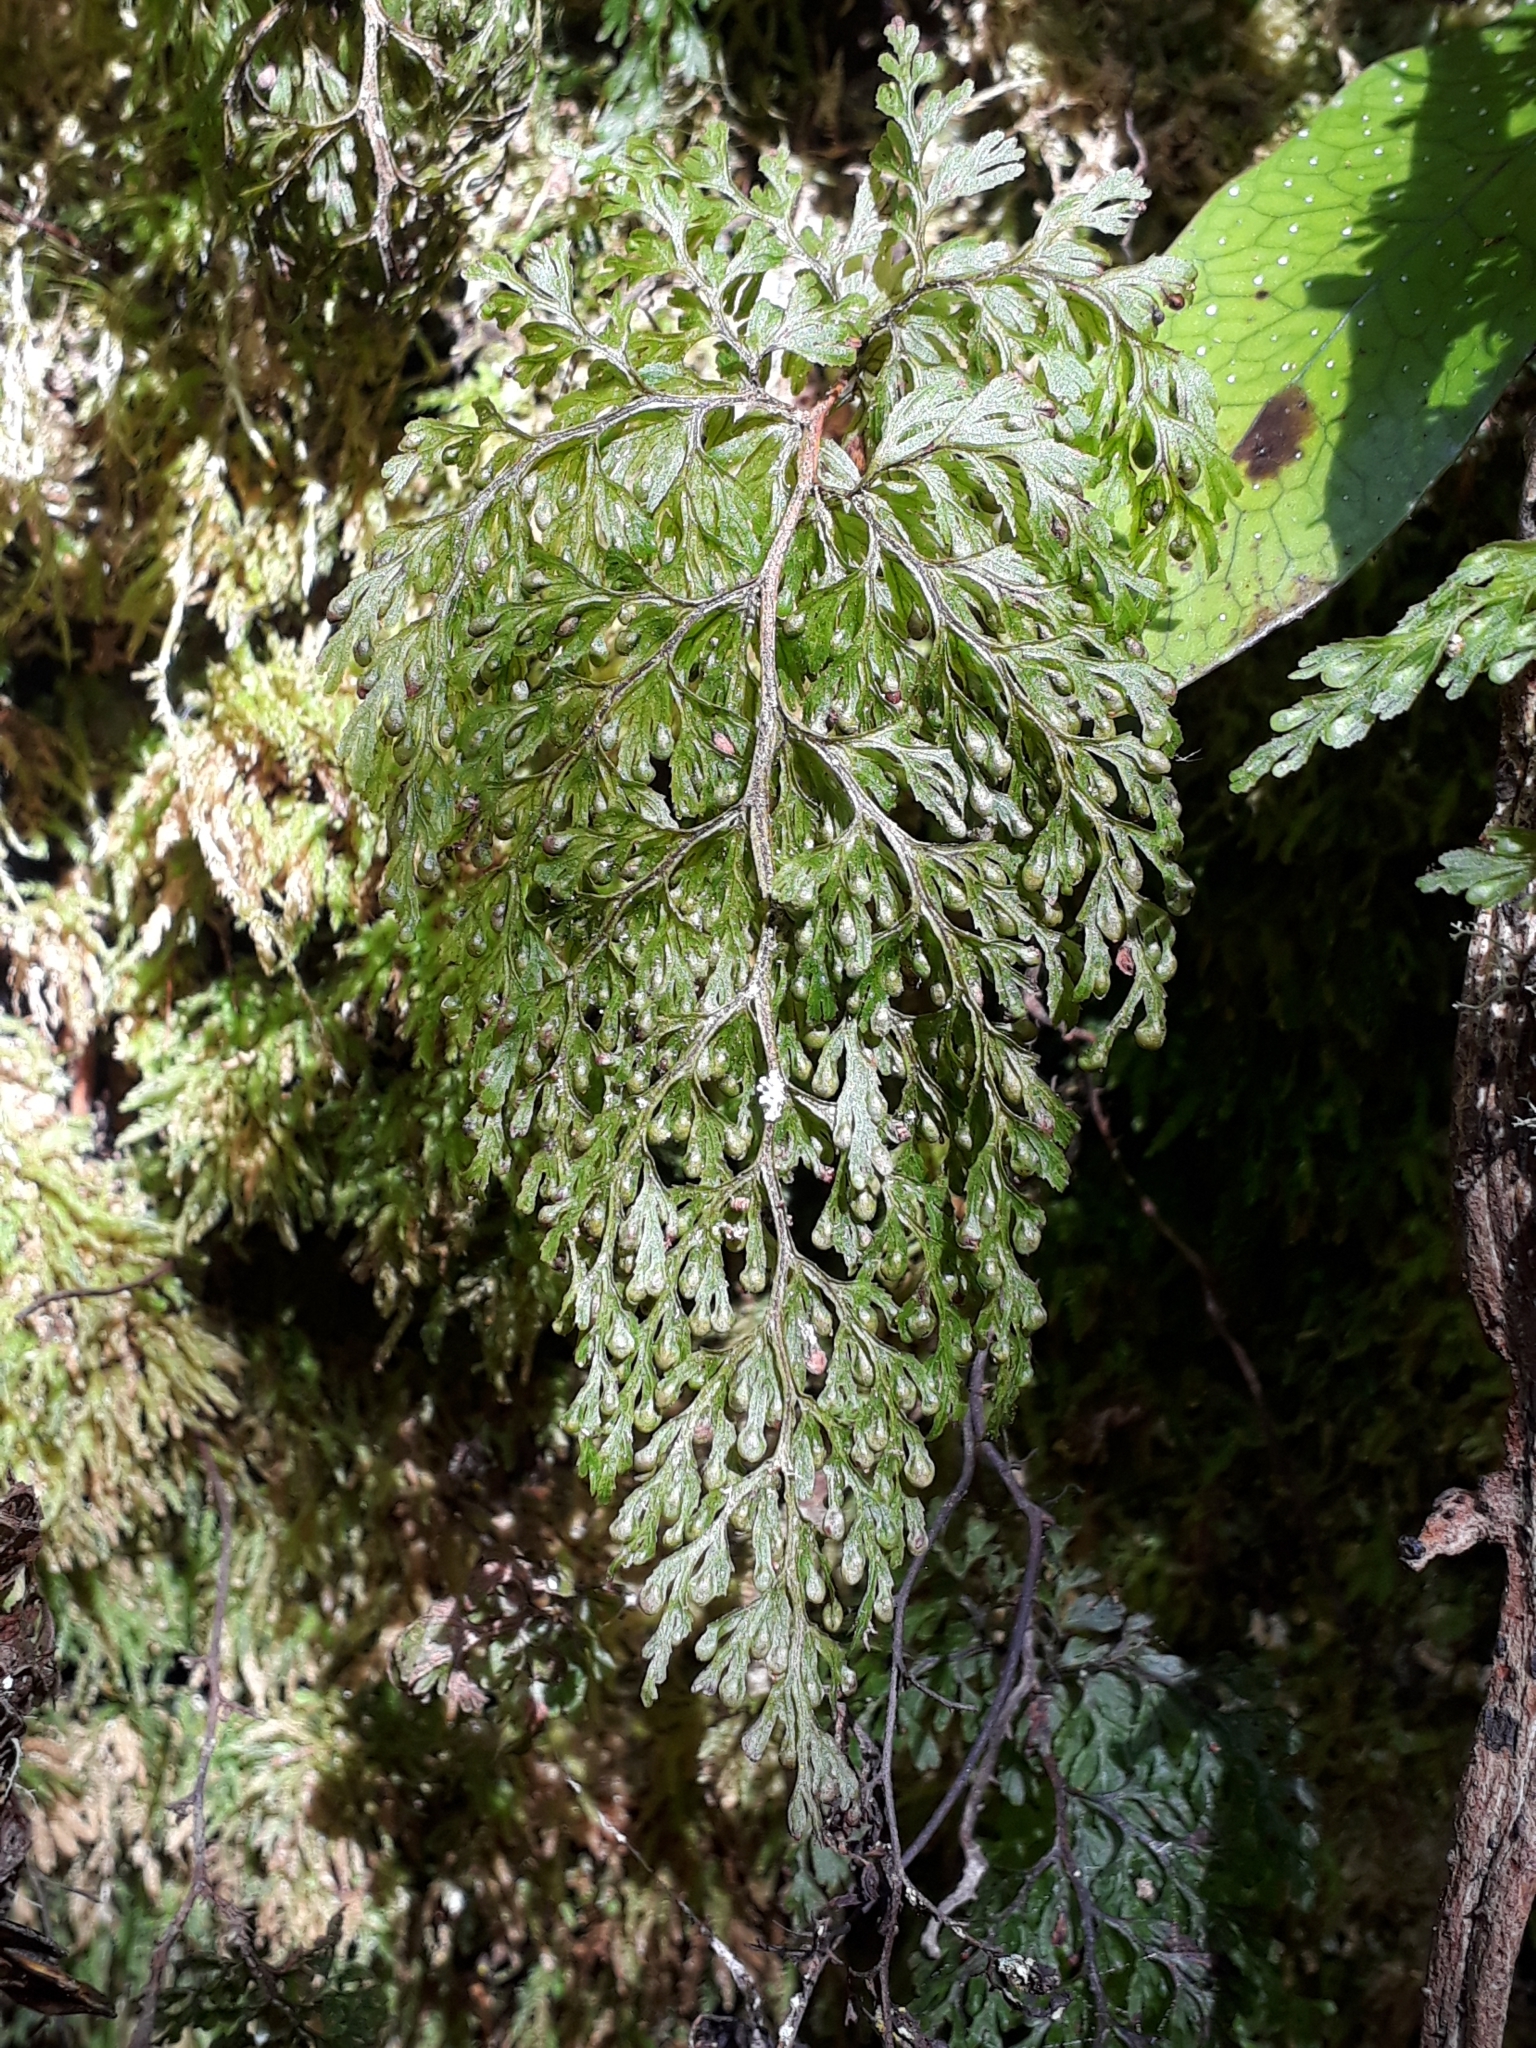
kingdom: Plantae
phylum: Tracheophyta
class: Polypodiopsida
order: Hymenophyllales
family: Hymenophyllaceae
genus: Hymenophyllum
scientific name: Hymenophyllum bivalve
